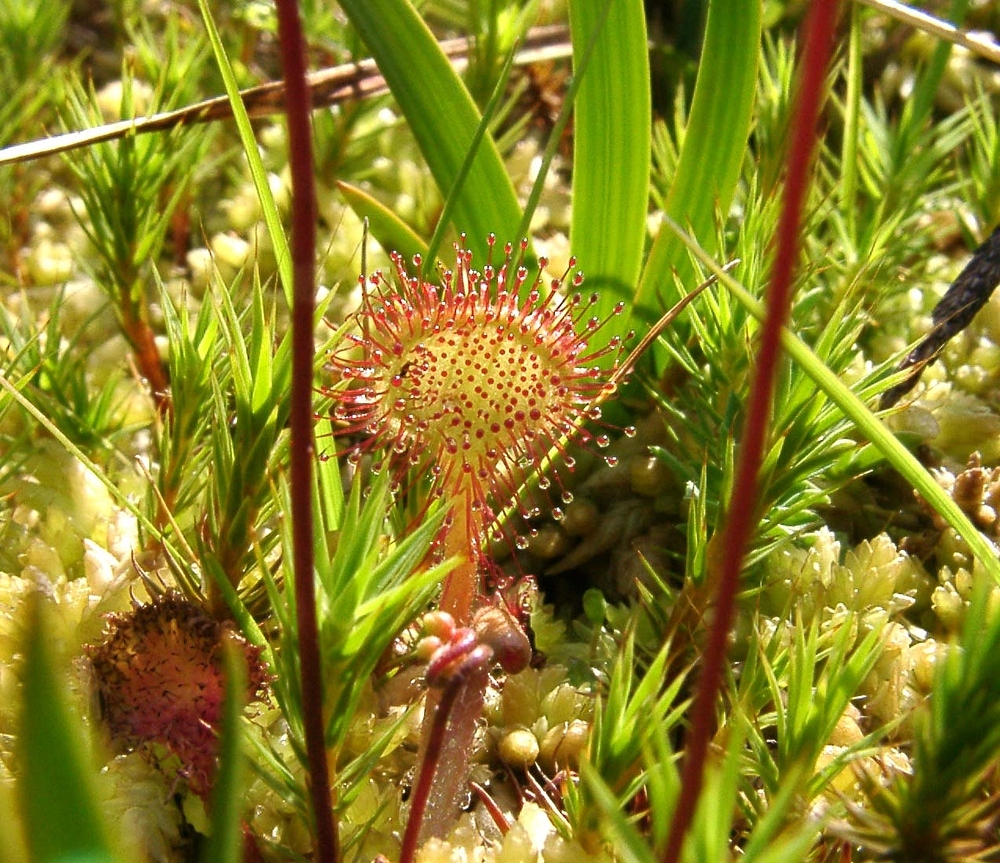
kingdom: Plantae
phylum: Tracheophyta
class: Magnoliopsida
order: Caryophyllales
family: Droseraceae
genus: Drosera
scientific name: Drosera rotundifolia
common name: Round-leaved sundew
